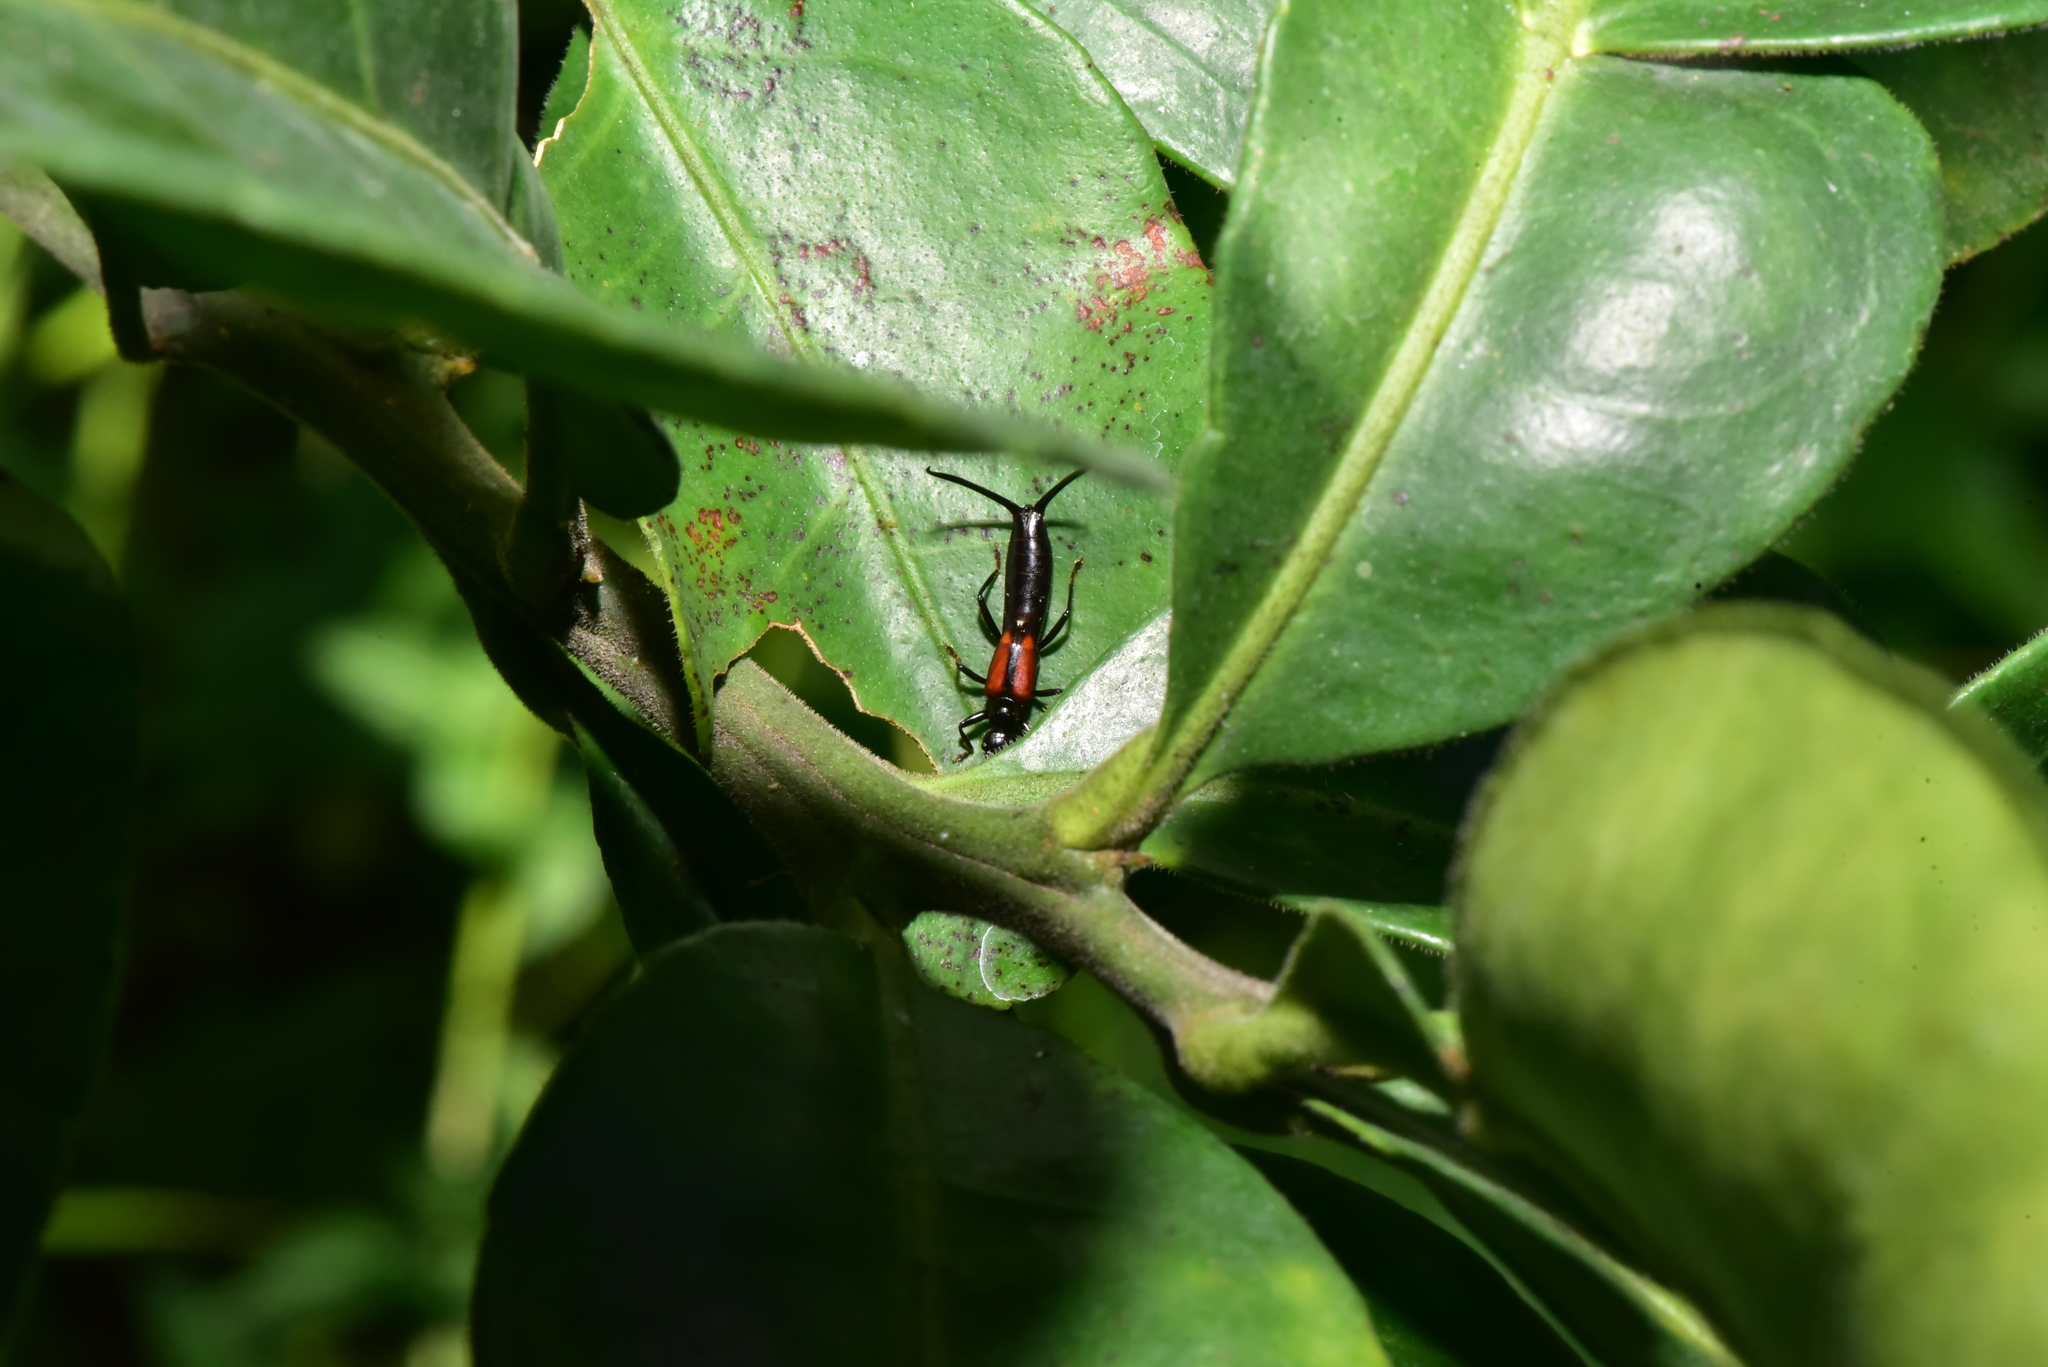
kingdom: Animalia
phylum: Arthropoda
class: Insecta
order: Dermaptera
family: Forficulidae
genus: Timomenus
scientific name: Timomenus komarovi
